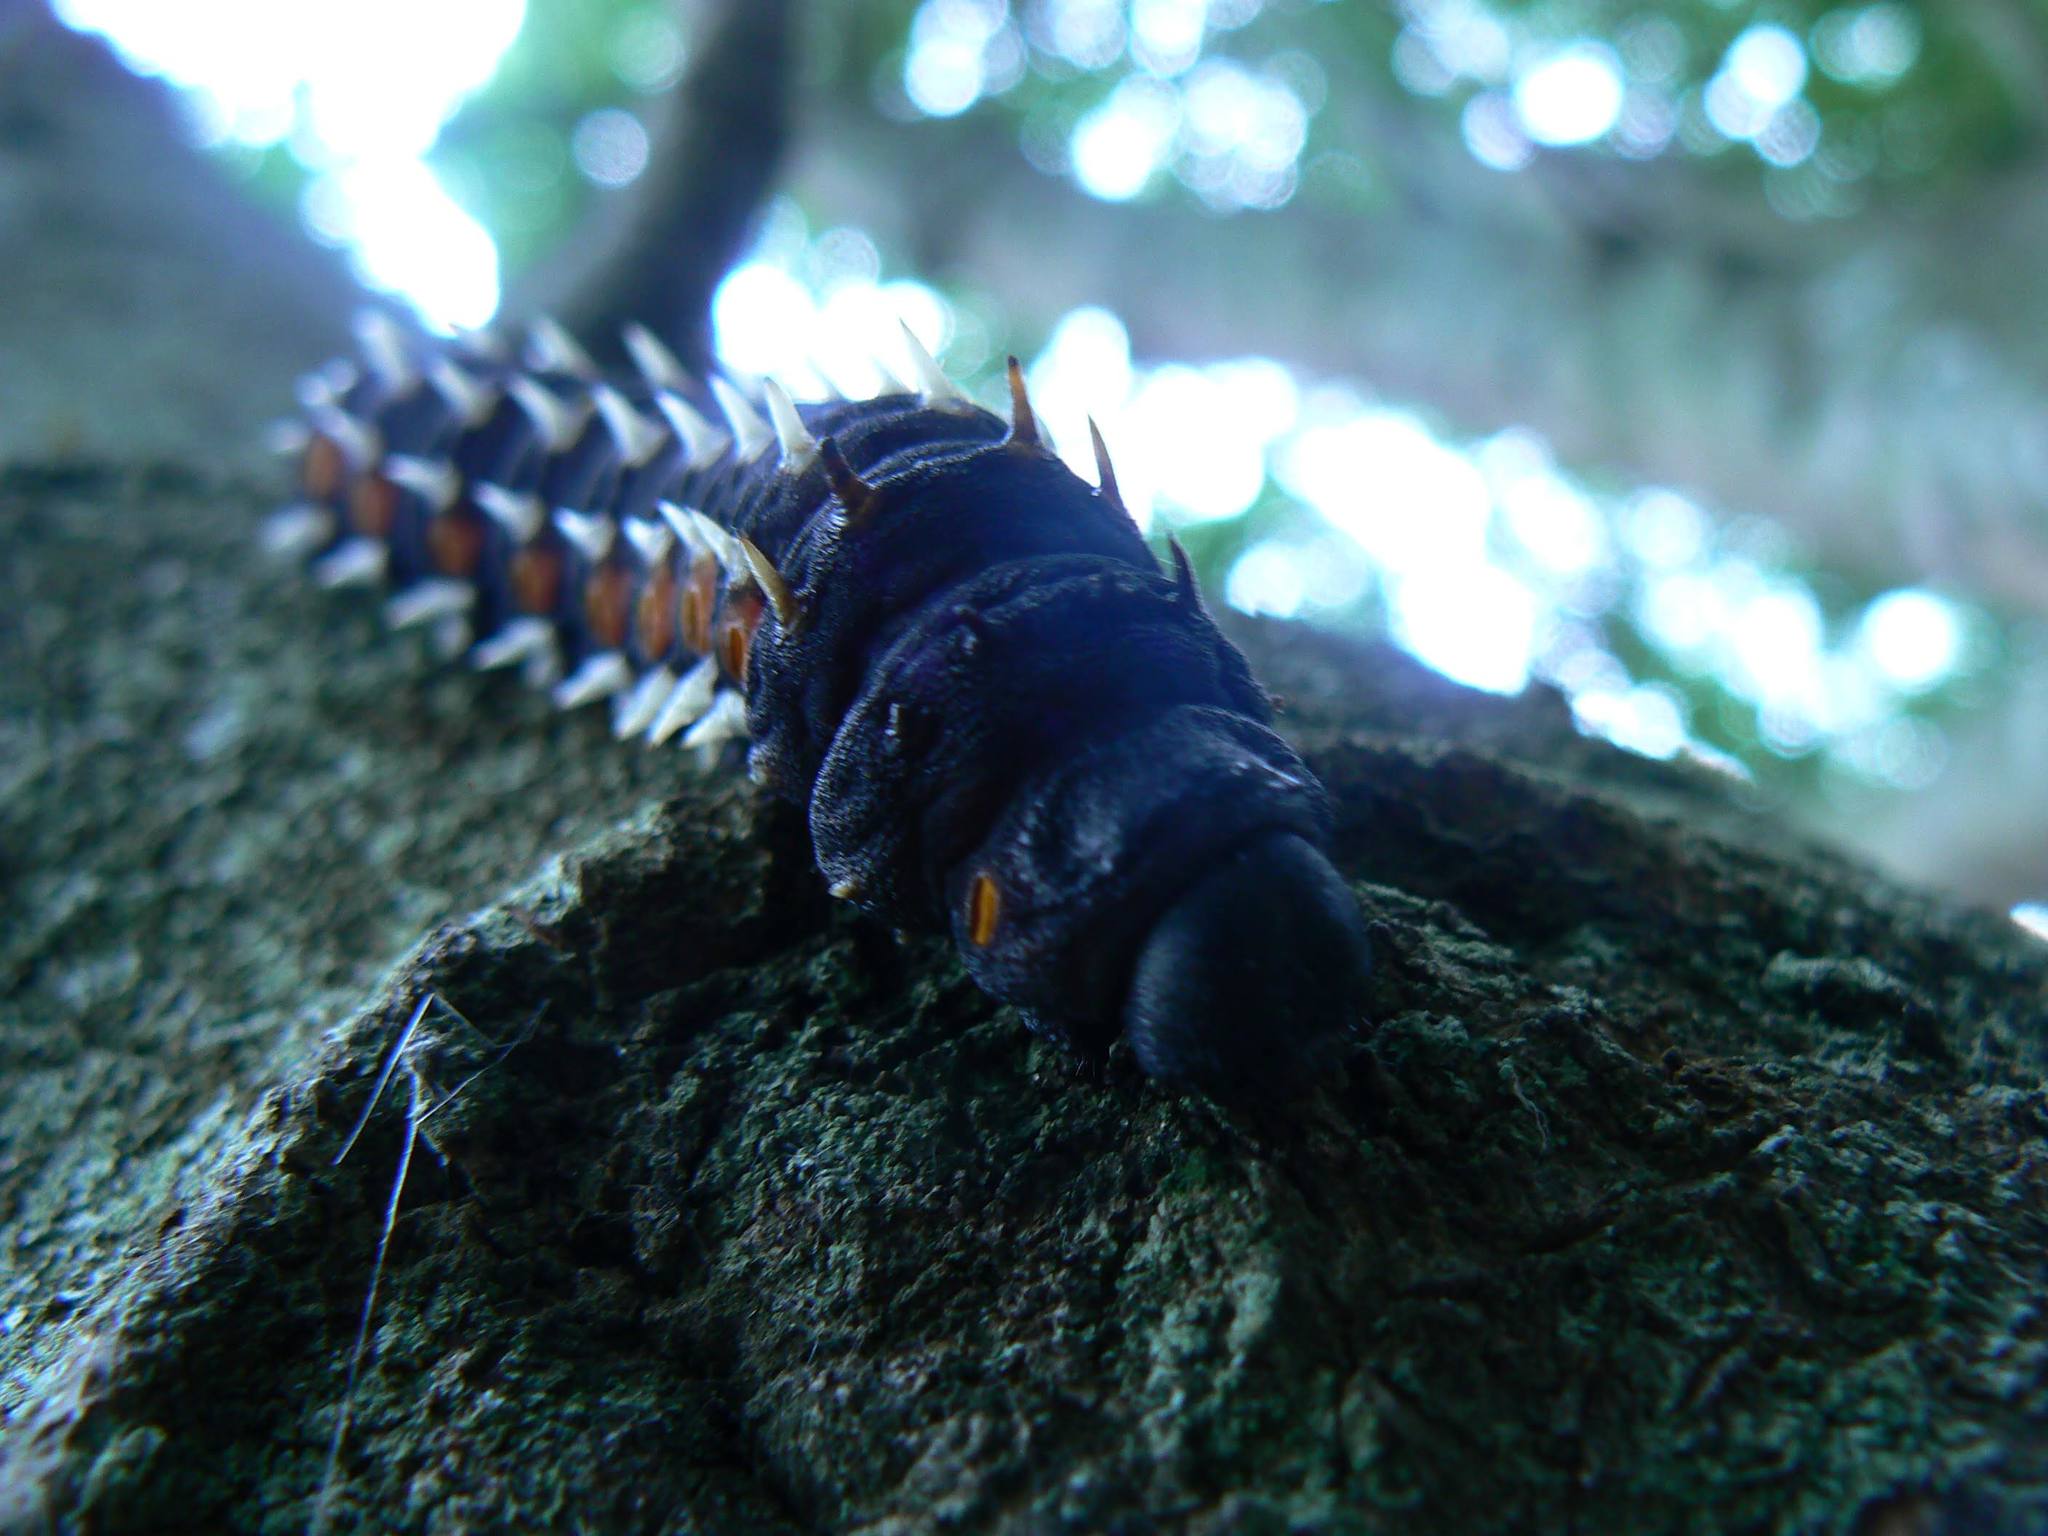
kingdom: Animalia
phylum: Arthropoda
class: Insecta
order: Lepidoptera
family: Saturniidae
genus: Bunaea
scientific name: Bunaea alcinoe
